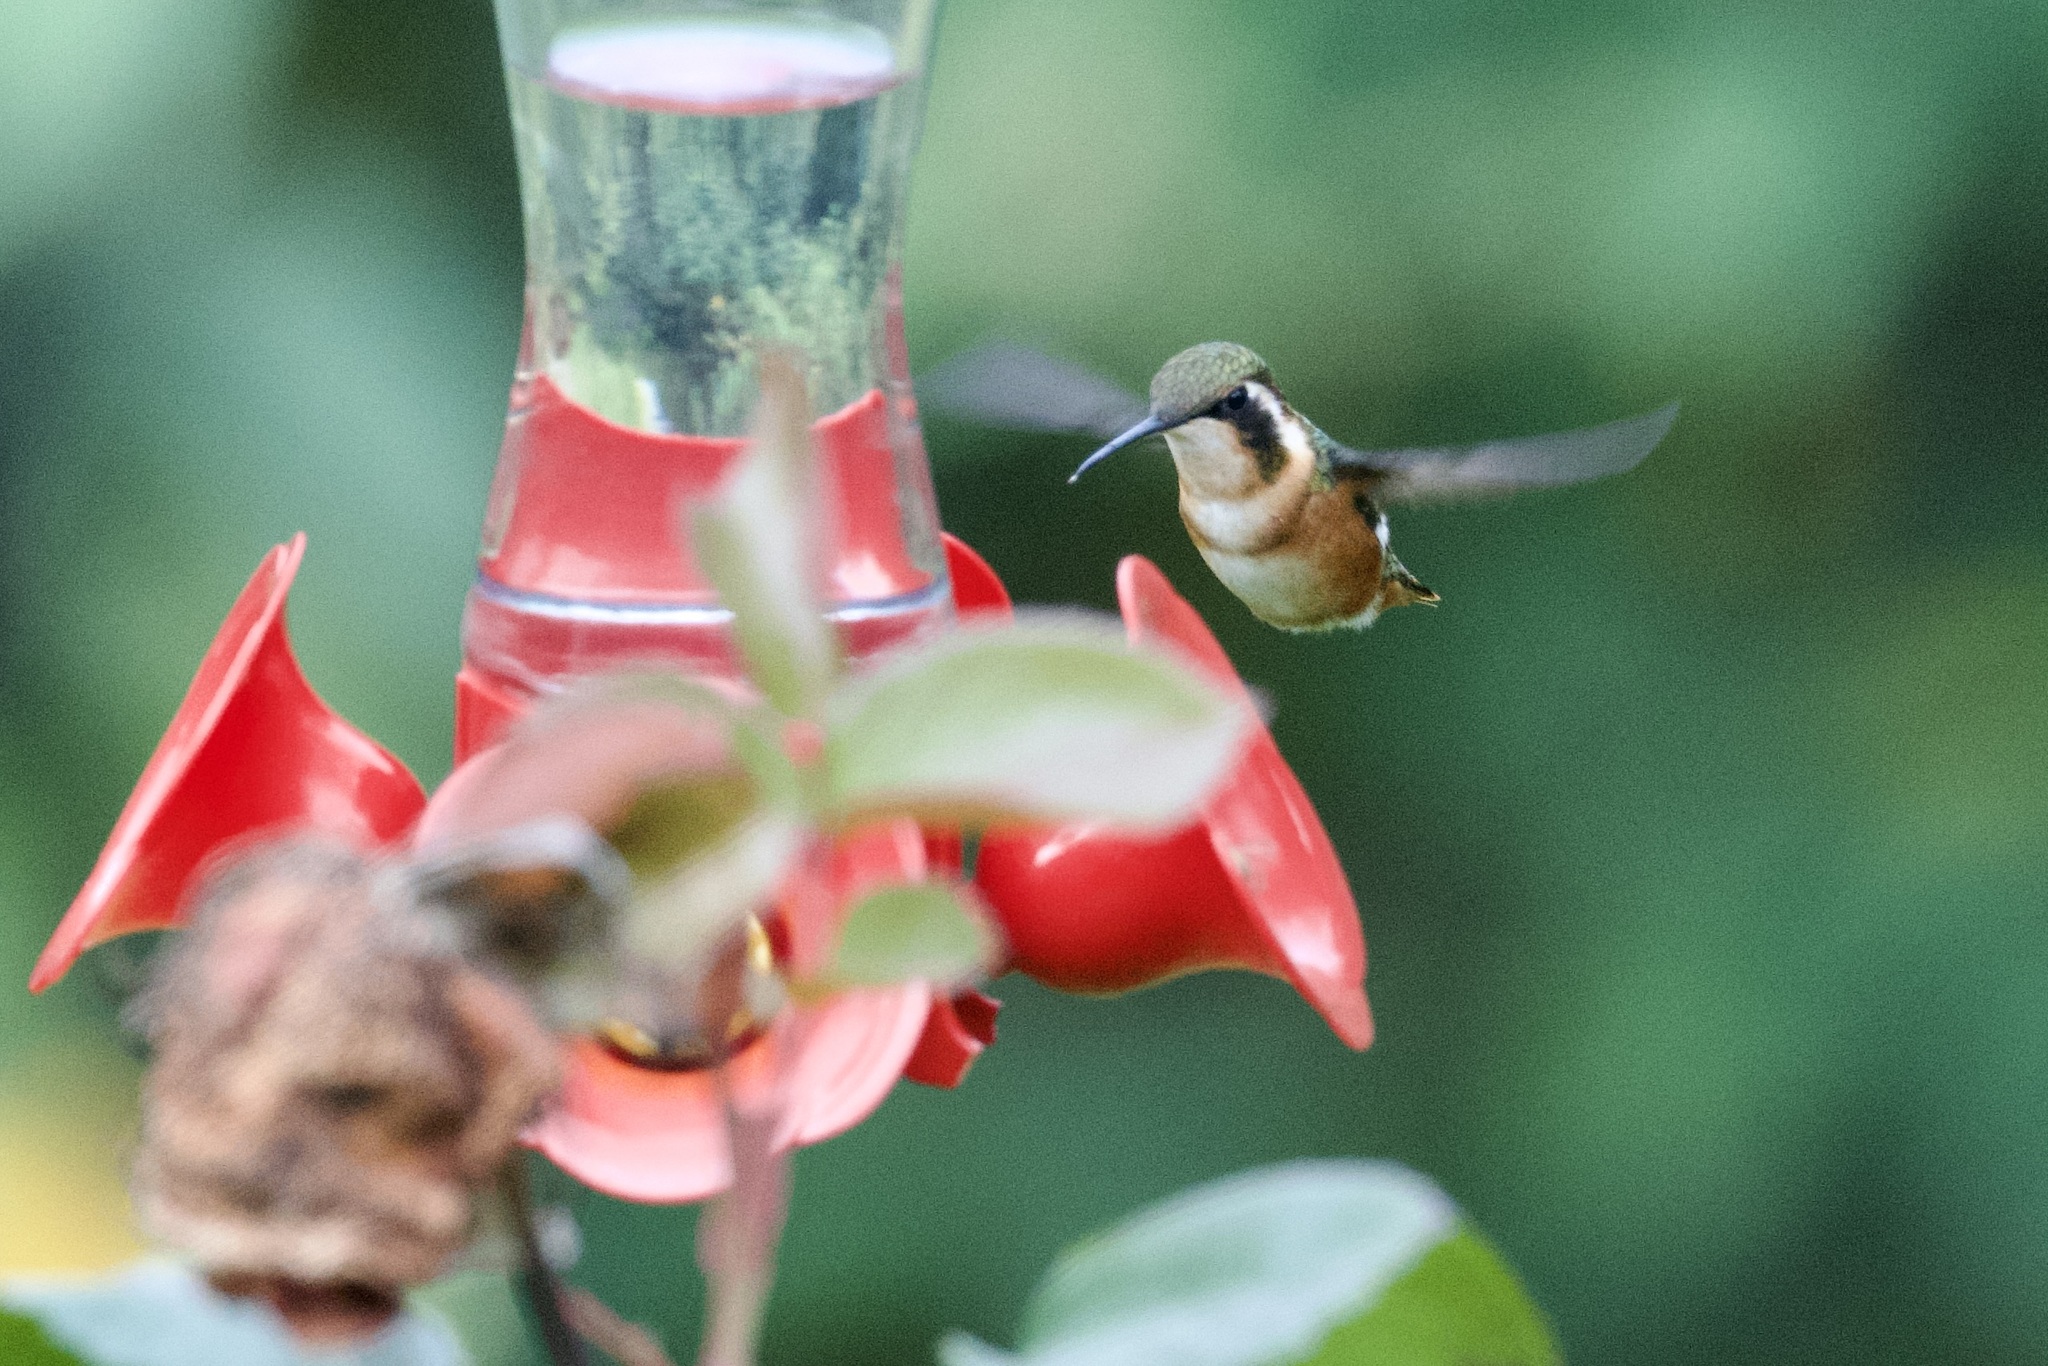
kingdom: Animalia
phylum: Chordata
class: Aves
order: Apodiformes
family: Trochilidae
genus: Chaetocercus
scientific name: Chaetocercus mulsant
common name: White-bellied woodstar
